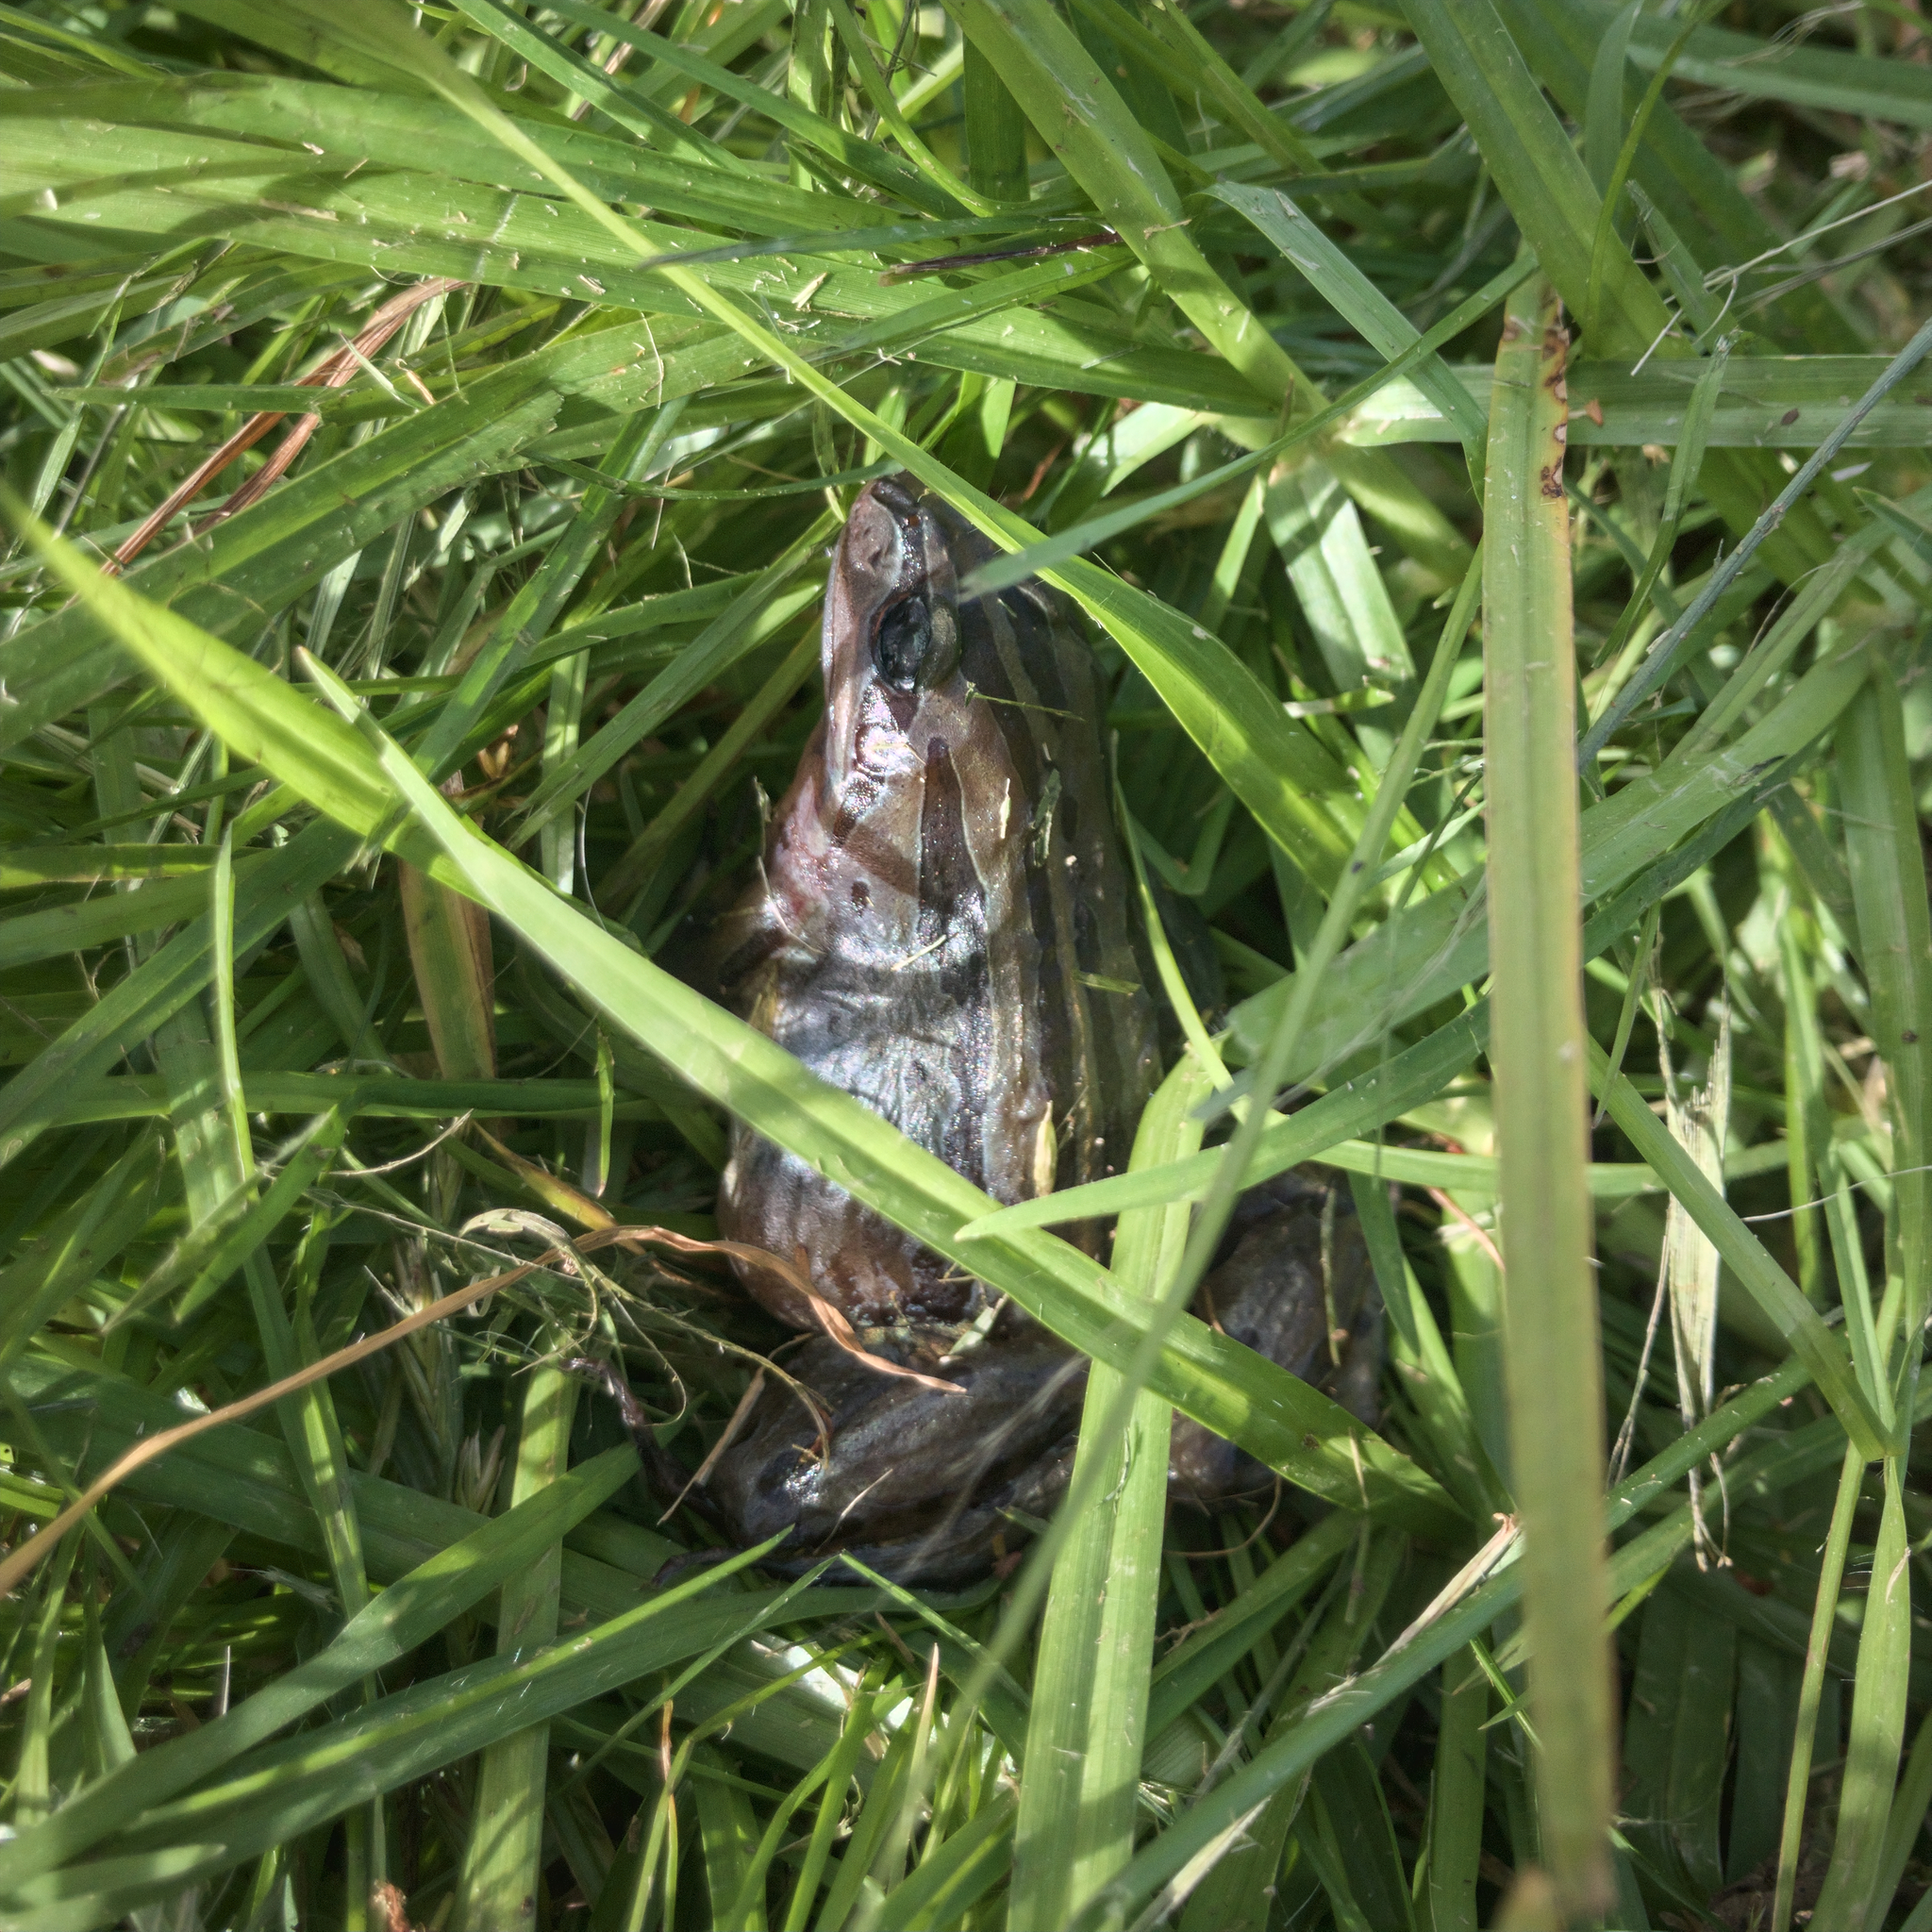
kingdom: Animalia
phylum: Chordata
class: Amphibia
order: Anura
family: Limnodynastidae
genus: Limnodynastes
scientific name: Limnodynastes peronii
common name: Brown frog
